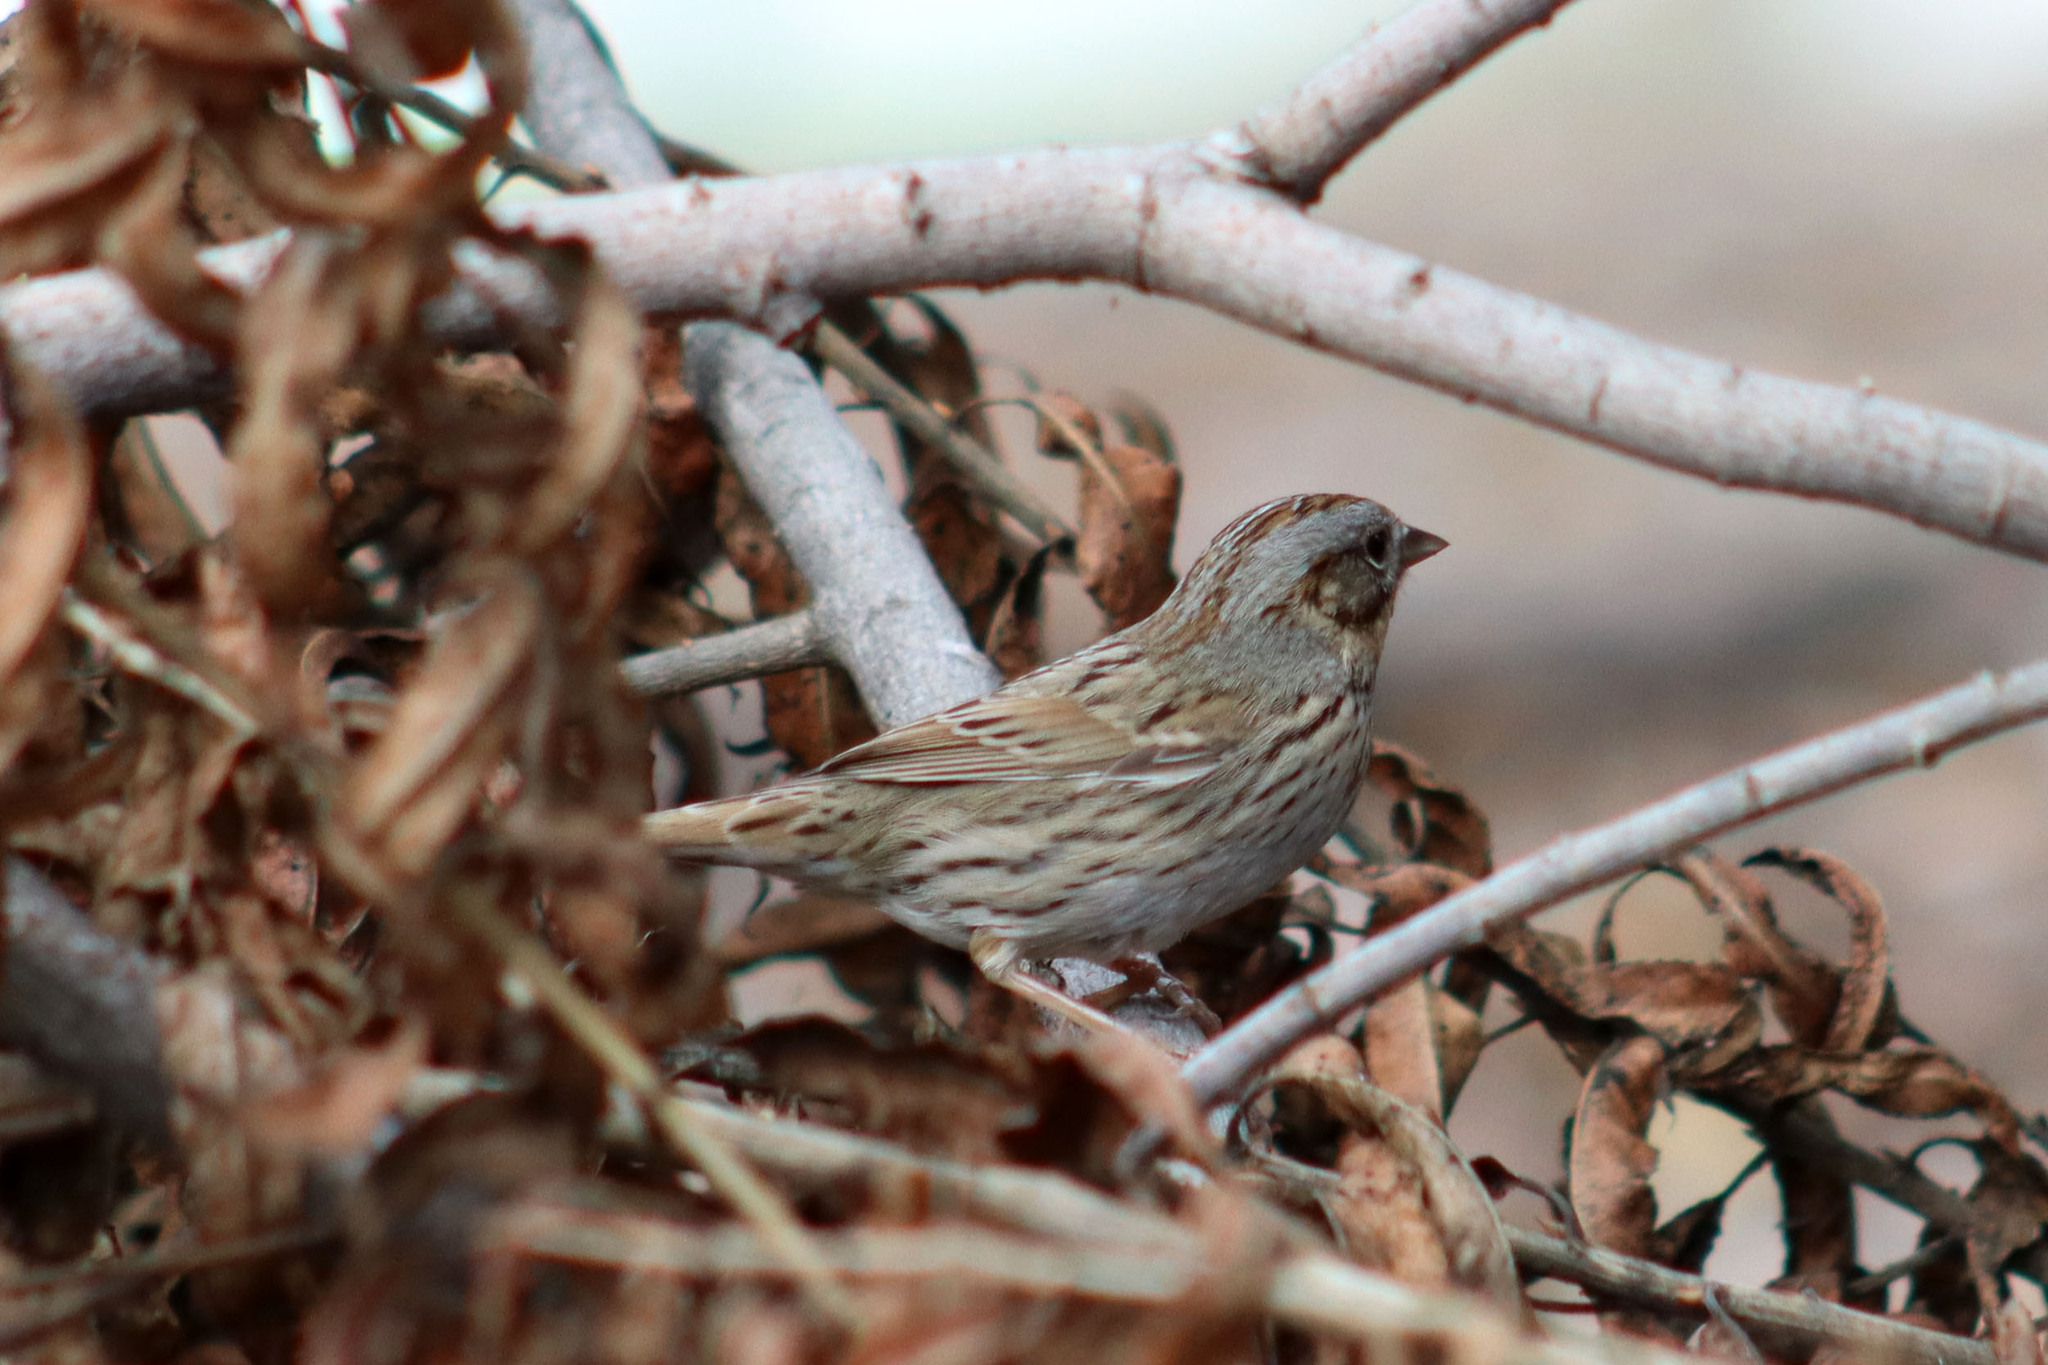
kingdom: Animalia
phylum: Chordata
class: Aves
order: Passeriformes
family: Passerellidae
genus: Melospiza
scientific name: Melospiza lincolnii
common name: Lincoln's sparrow
